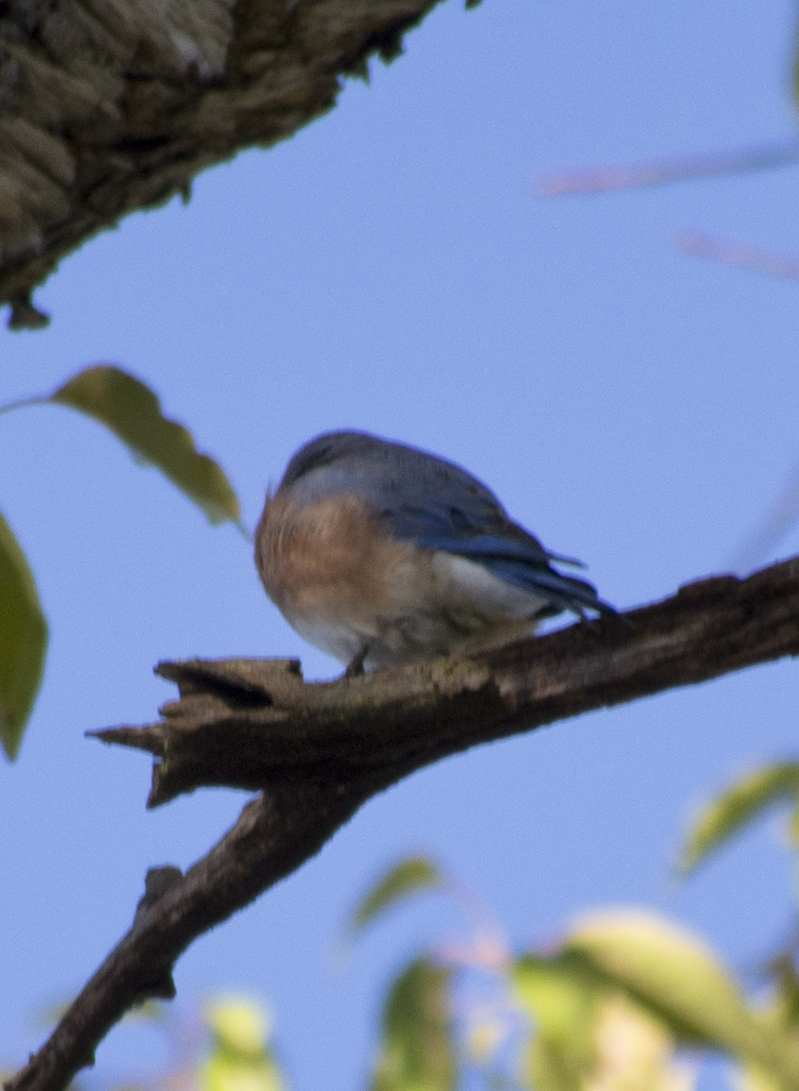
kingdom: Animalia
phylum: Chordata
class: Aves
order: Passeriformes
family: Turdidae
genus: Sialia
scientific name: Sialia sialis
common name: Eastern bluebird
